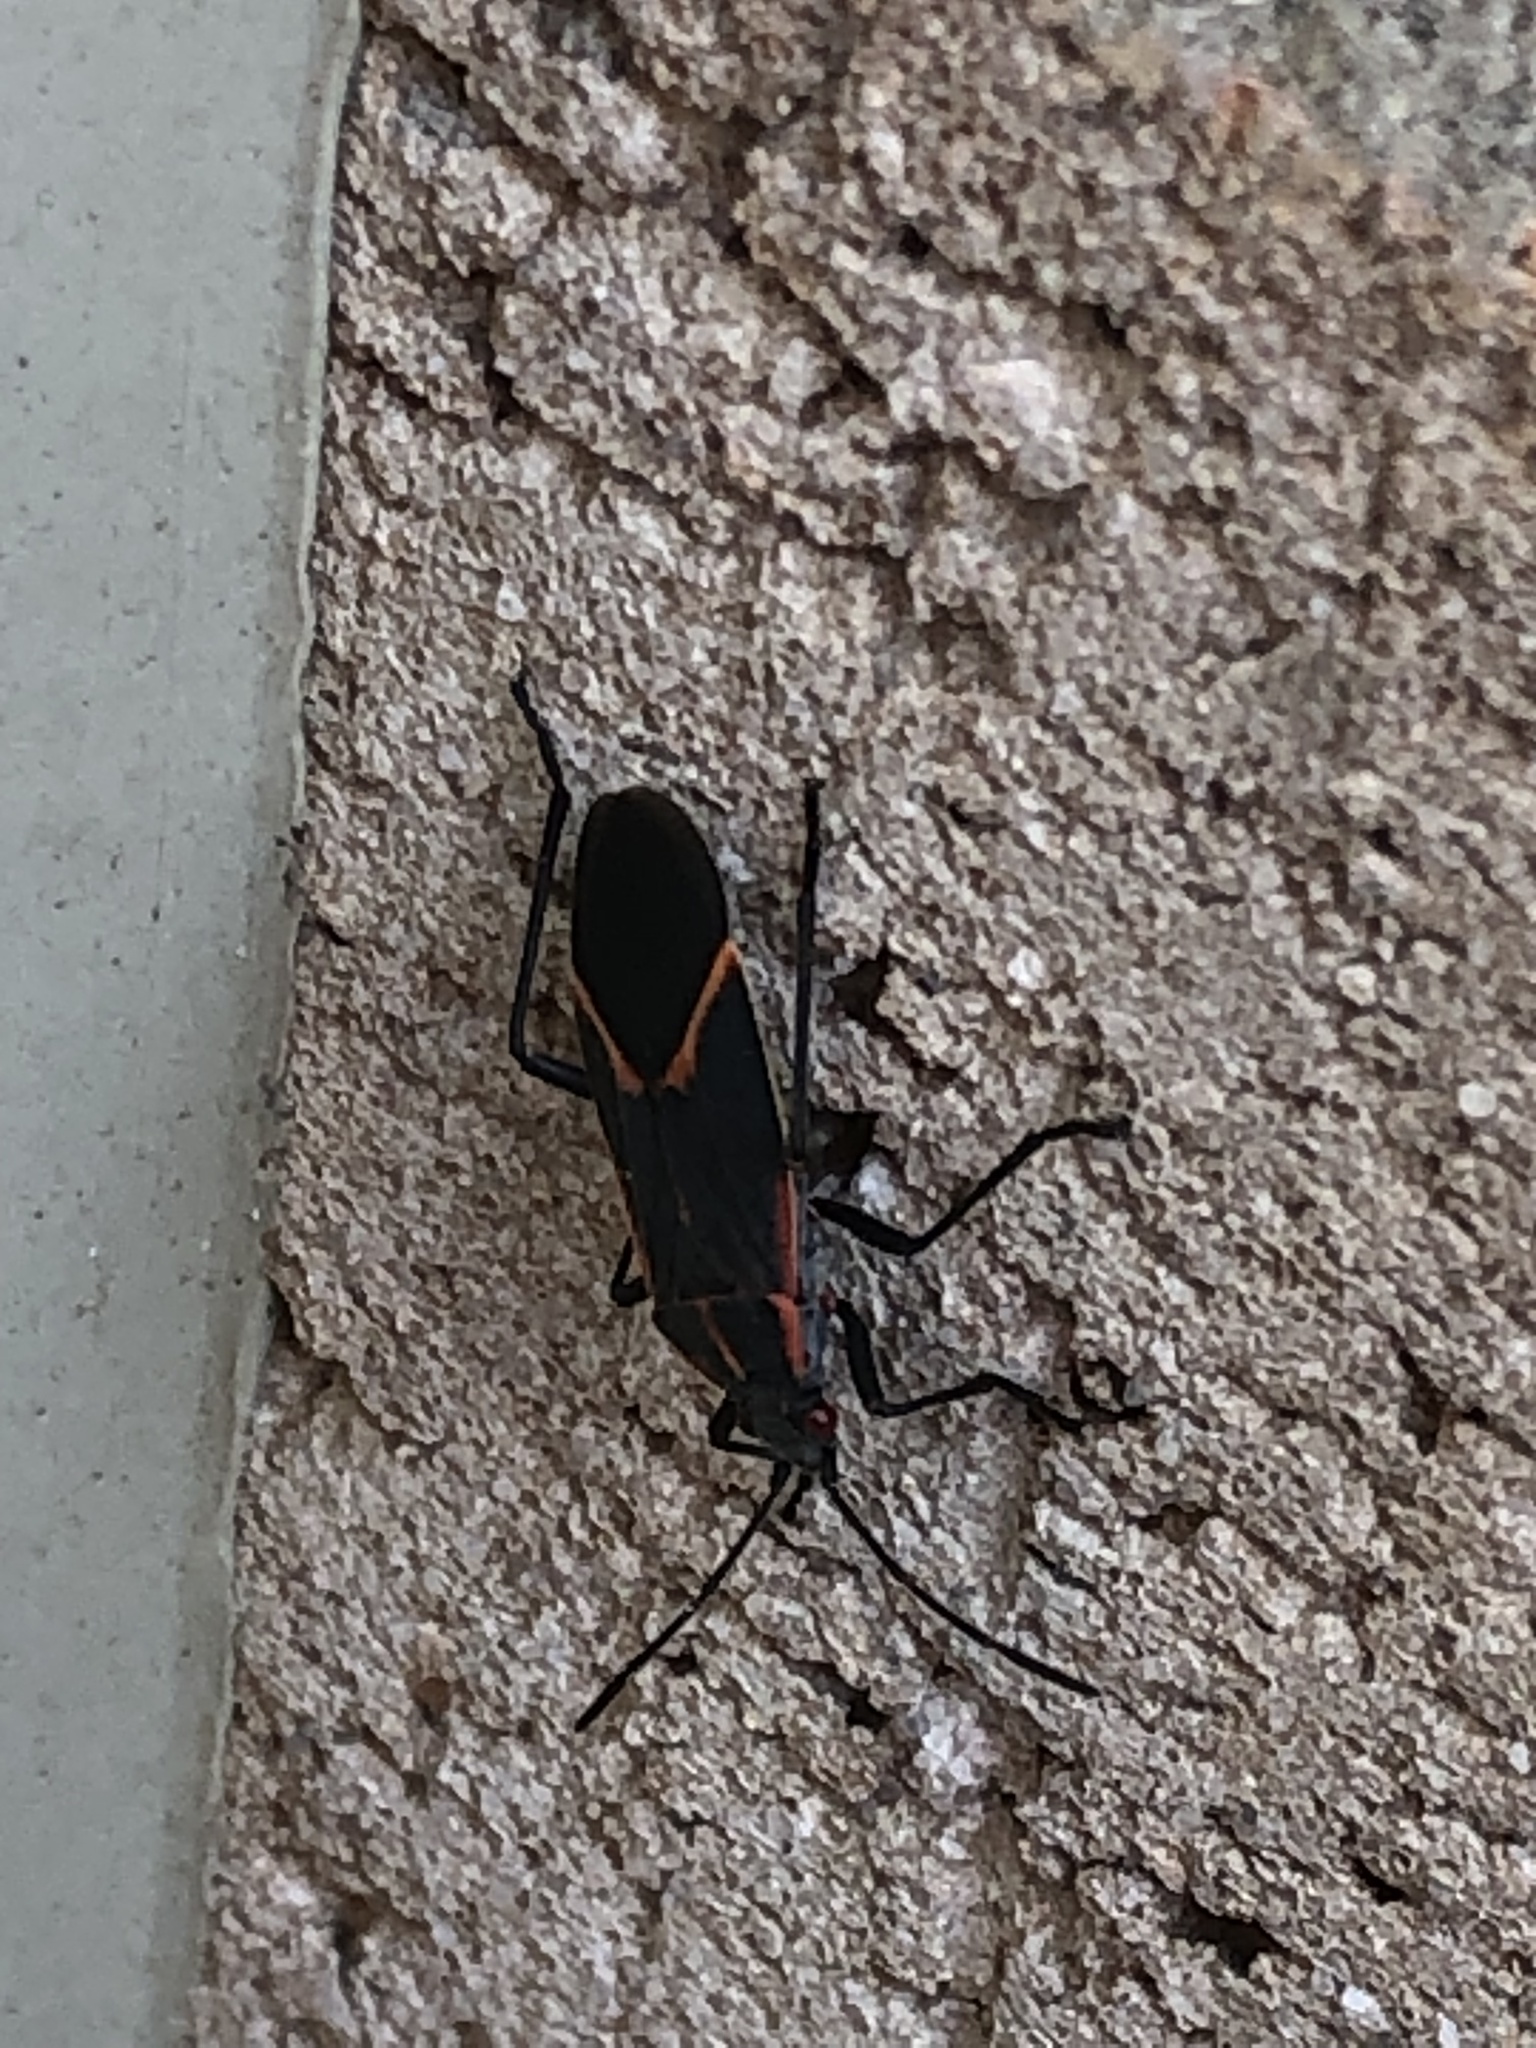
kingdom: Animalia
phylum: Arthropoda
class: Insecta
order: Hemiptera
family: Rhopalidae
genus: Boisea
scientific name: Boisea trivittata
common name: Boxelder bug
